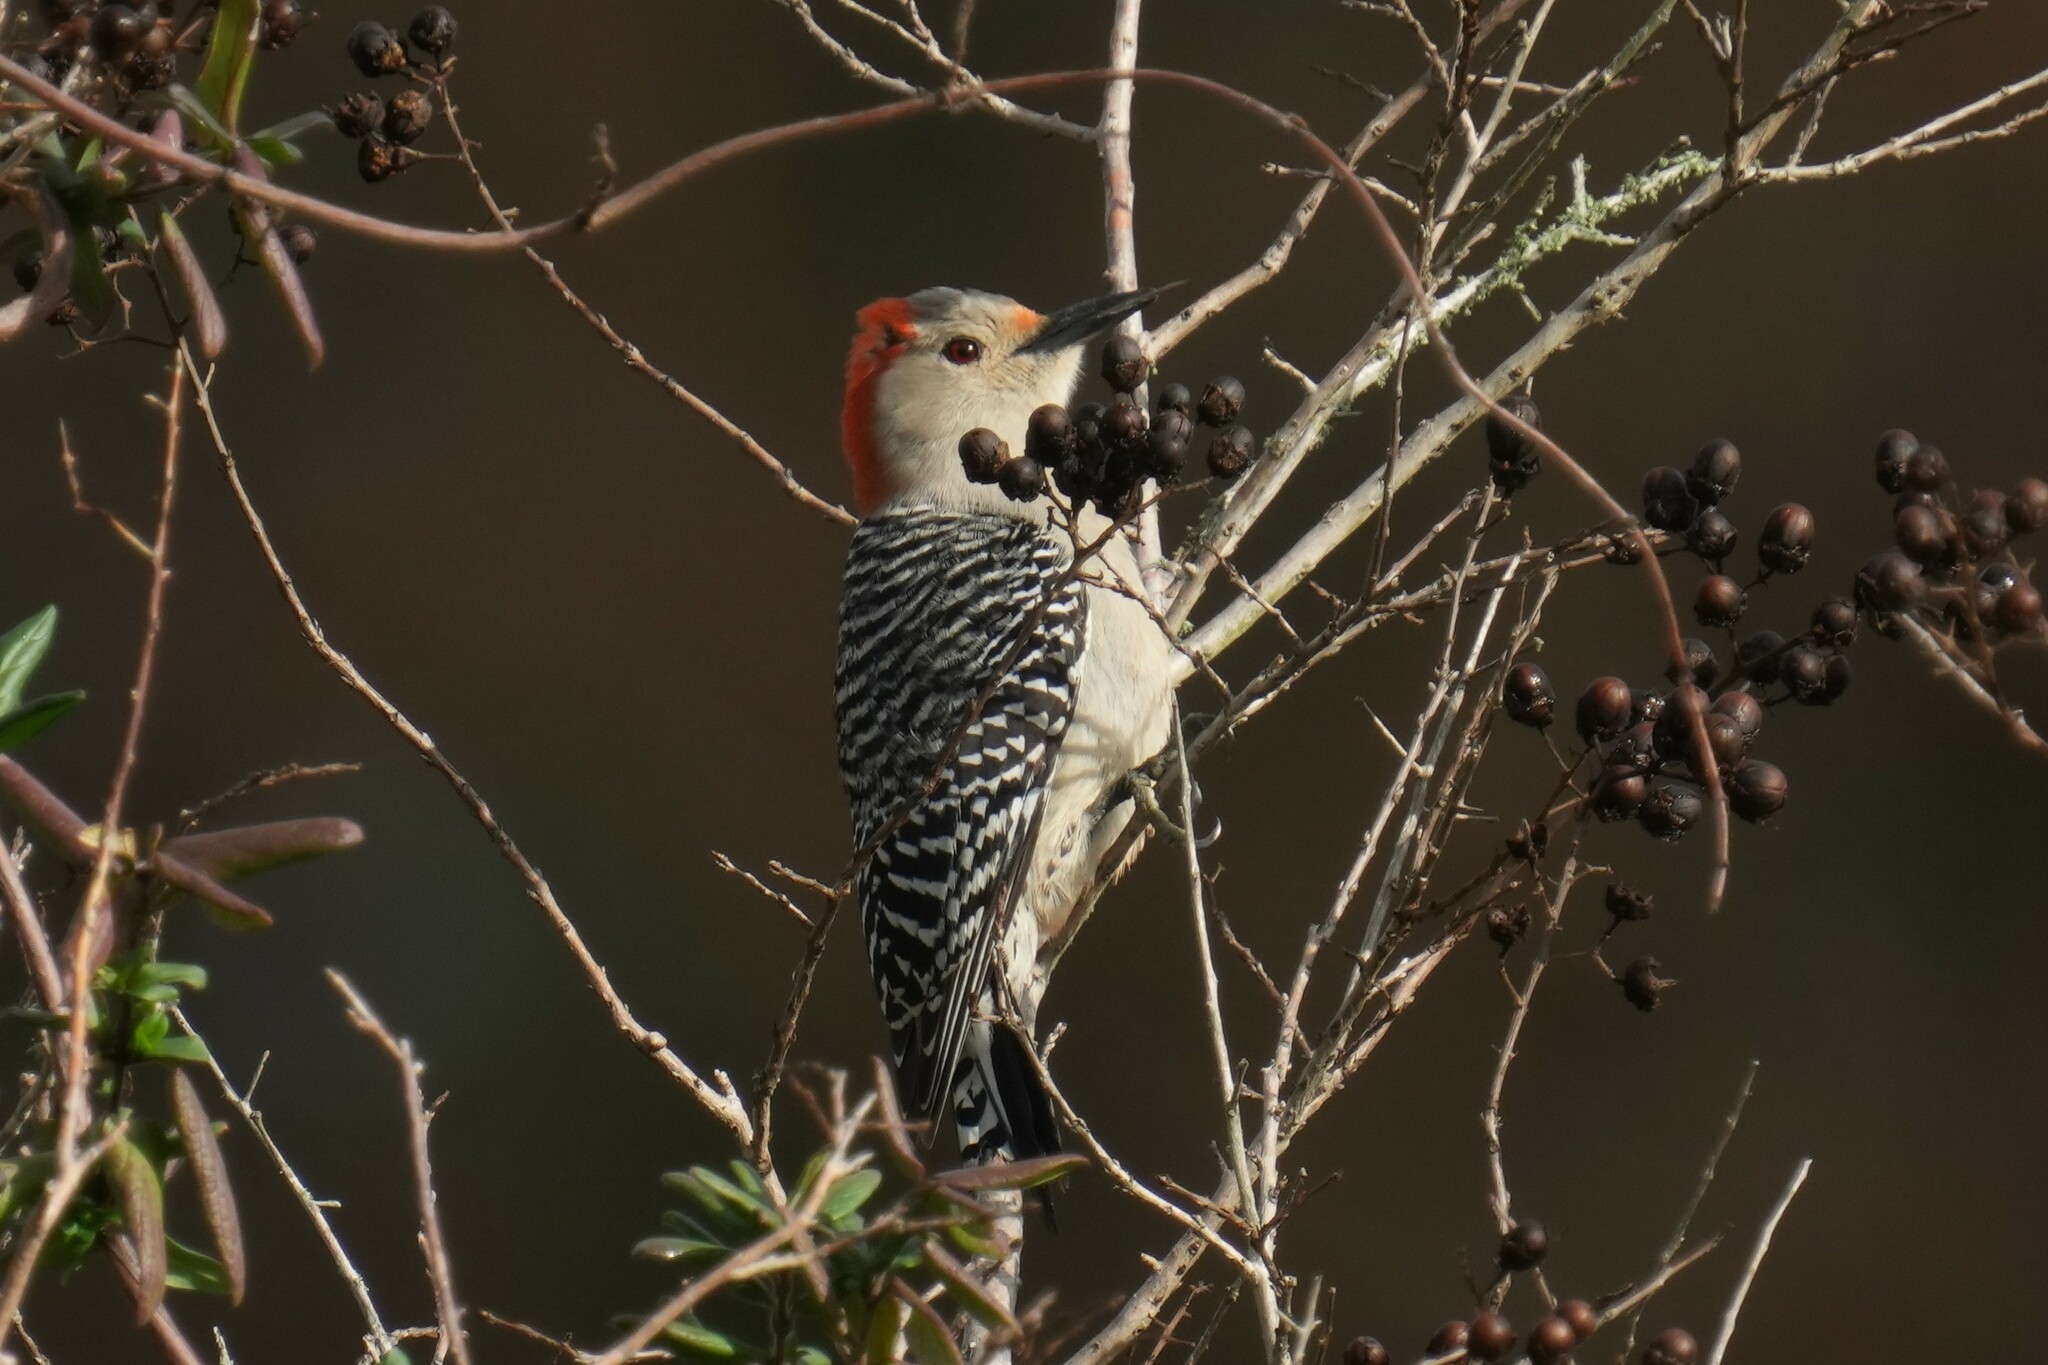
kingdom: Animalia
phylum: Chordata
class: Aves
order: Piciformes
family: Picidae
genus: Melanerpes
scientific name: Melanerpes carolinus
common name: Red-bellied woodpecker
